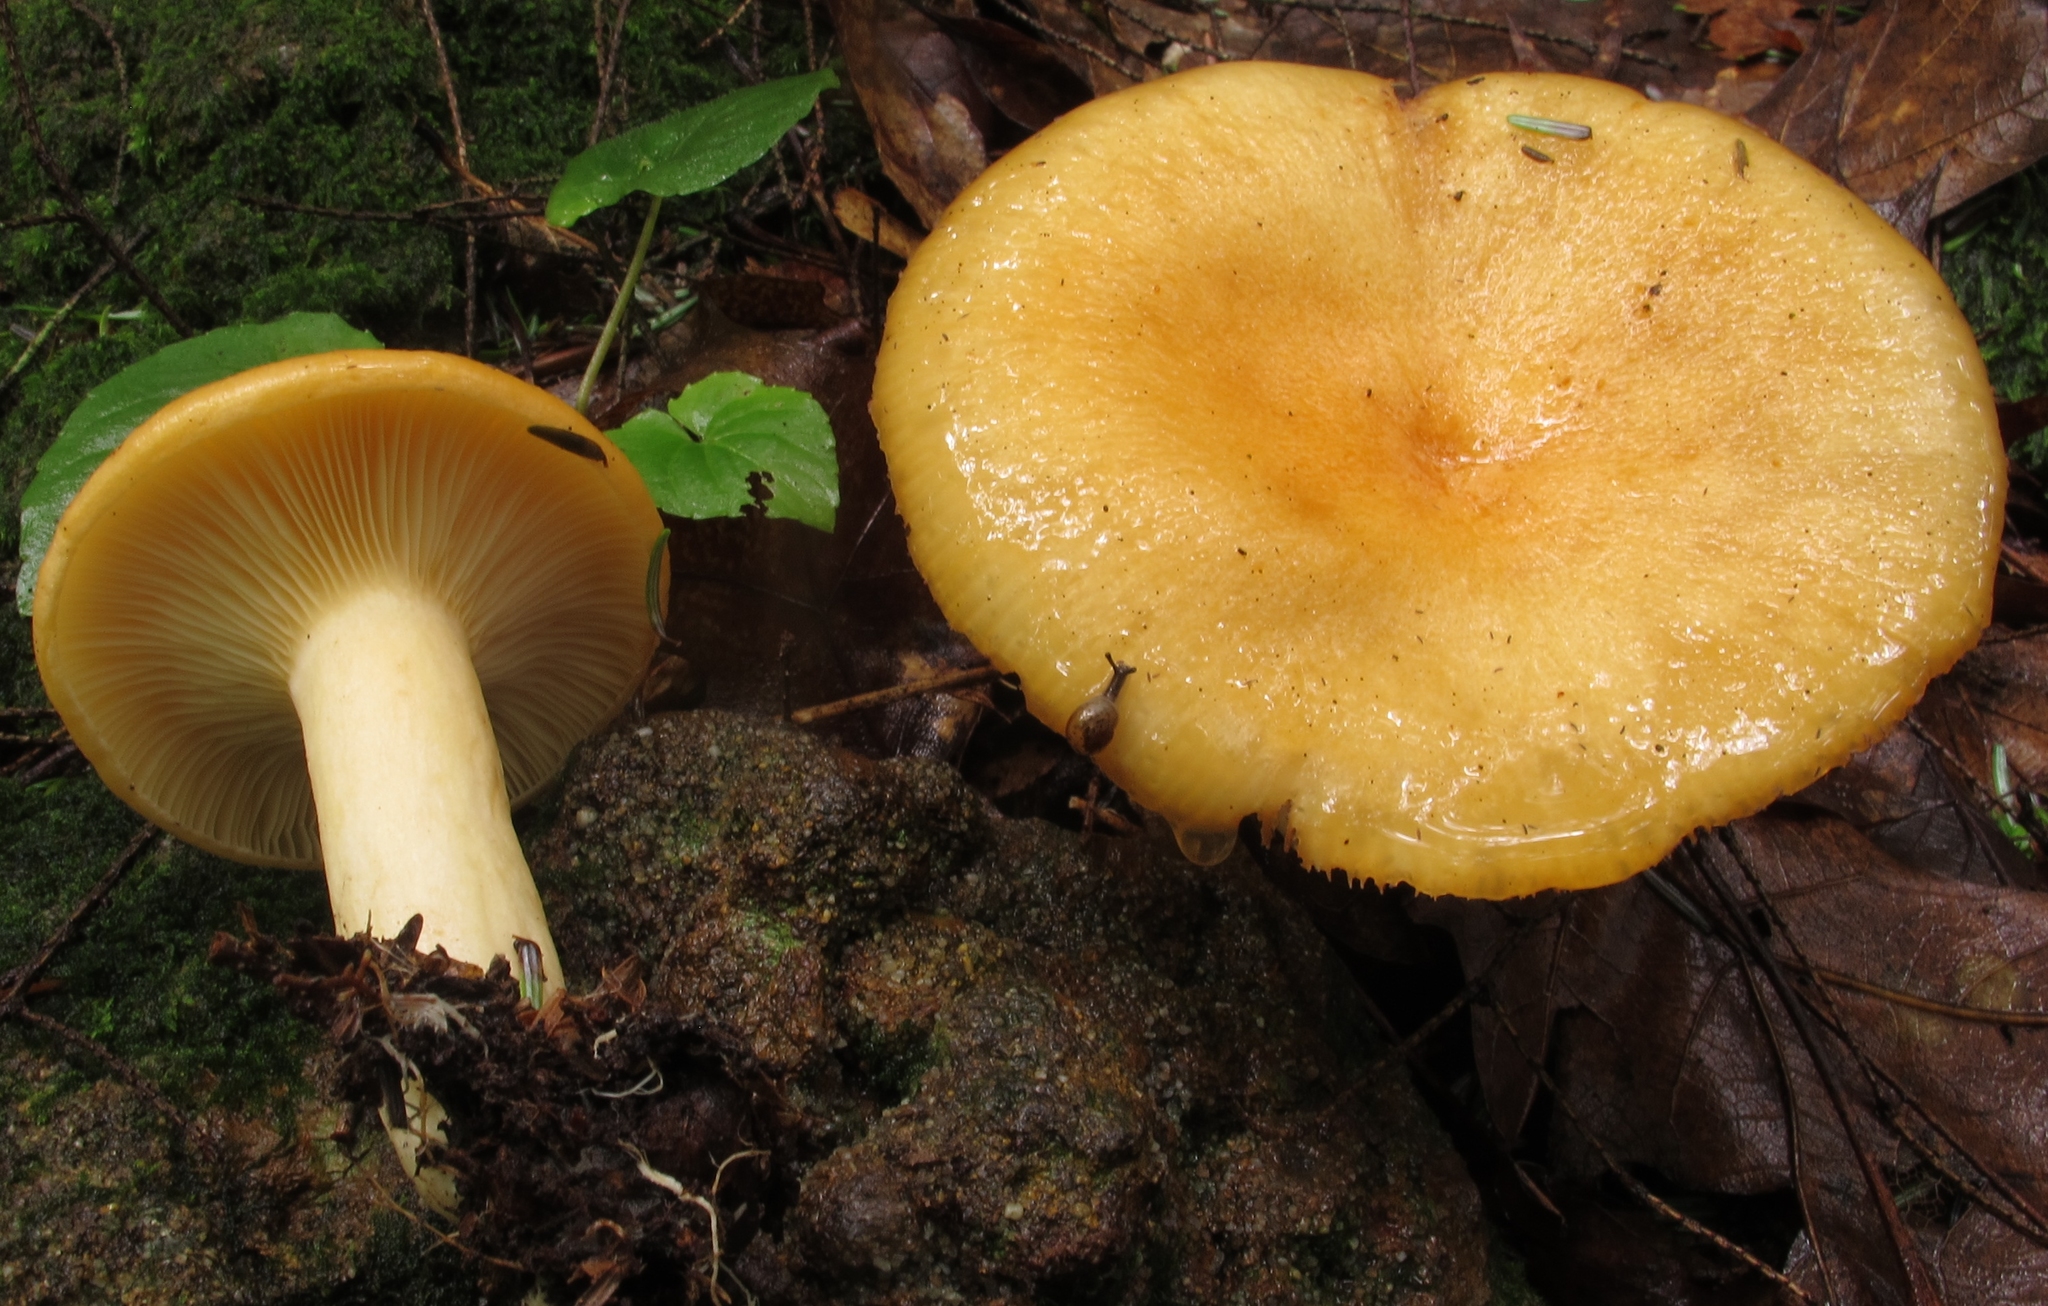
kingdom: Fungi
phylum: Basidiomycota
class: Agaricomycetes
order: Russulales
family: Russulaceae
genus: Lactarius
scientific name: Lactarius croceus
